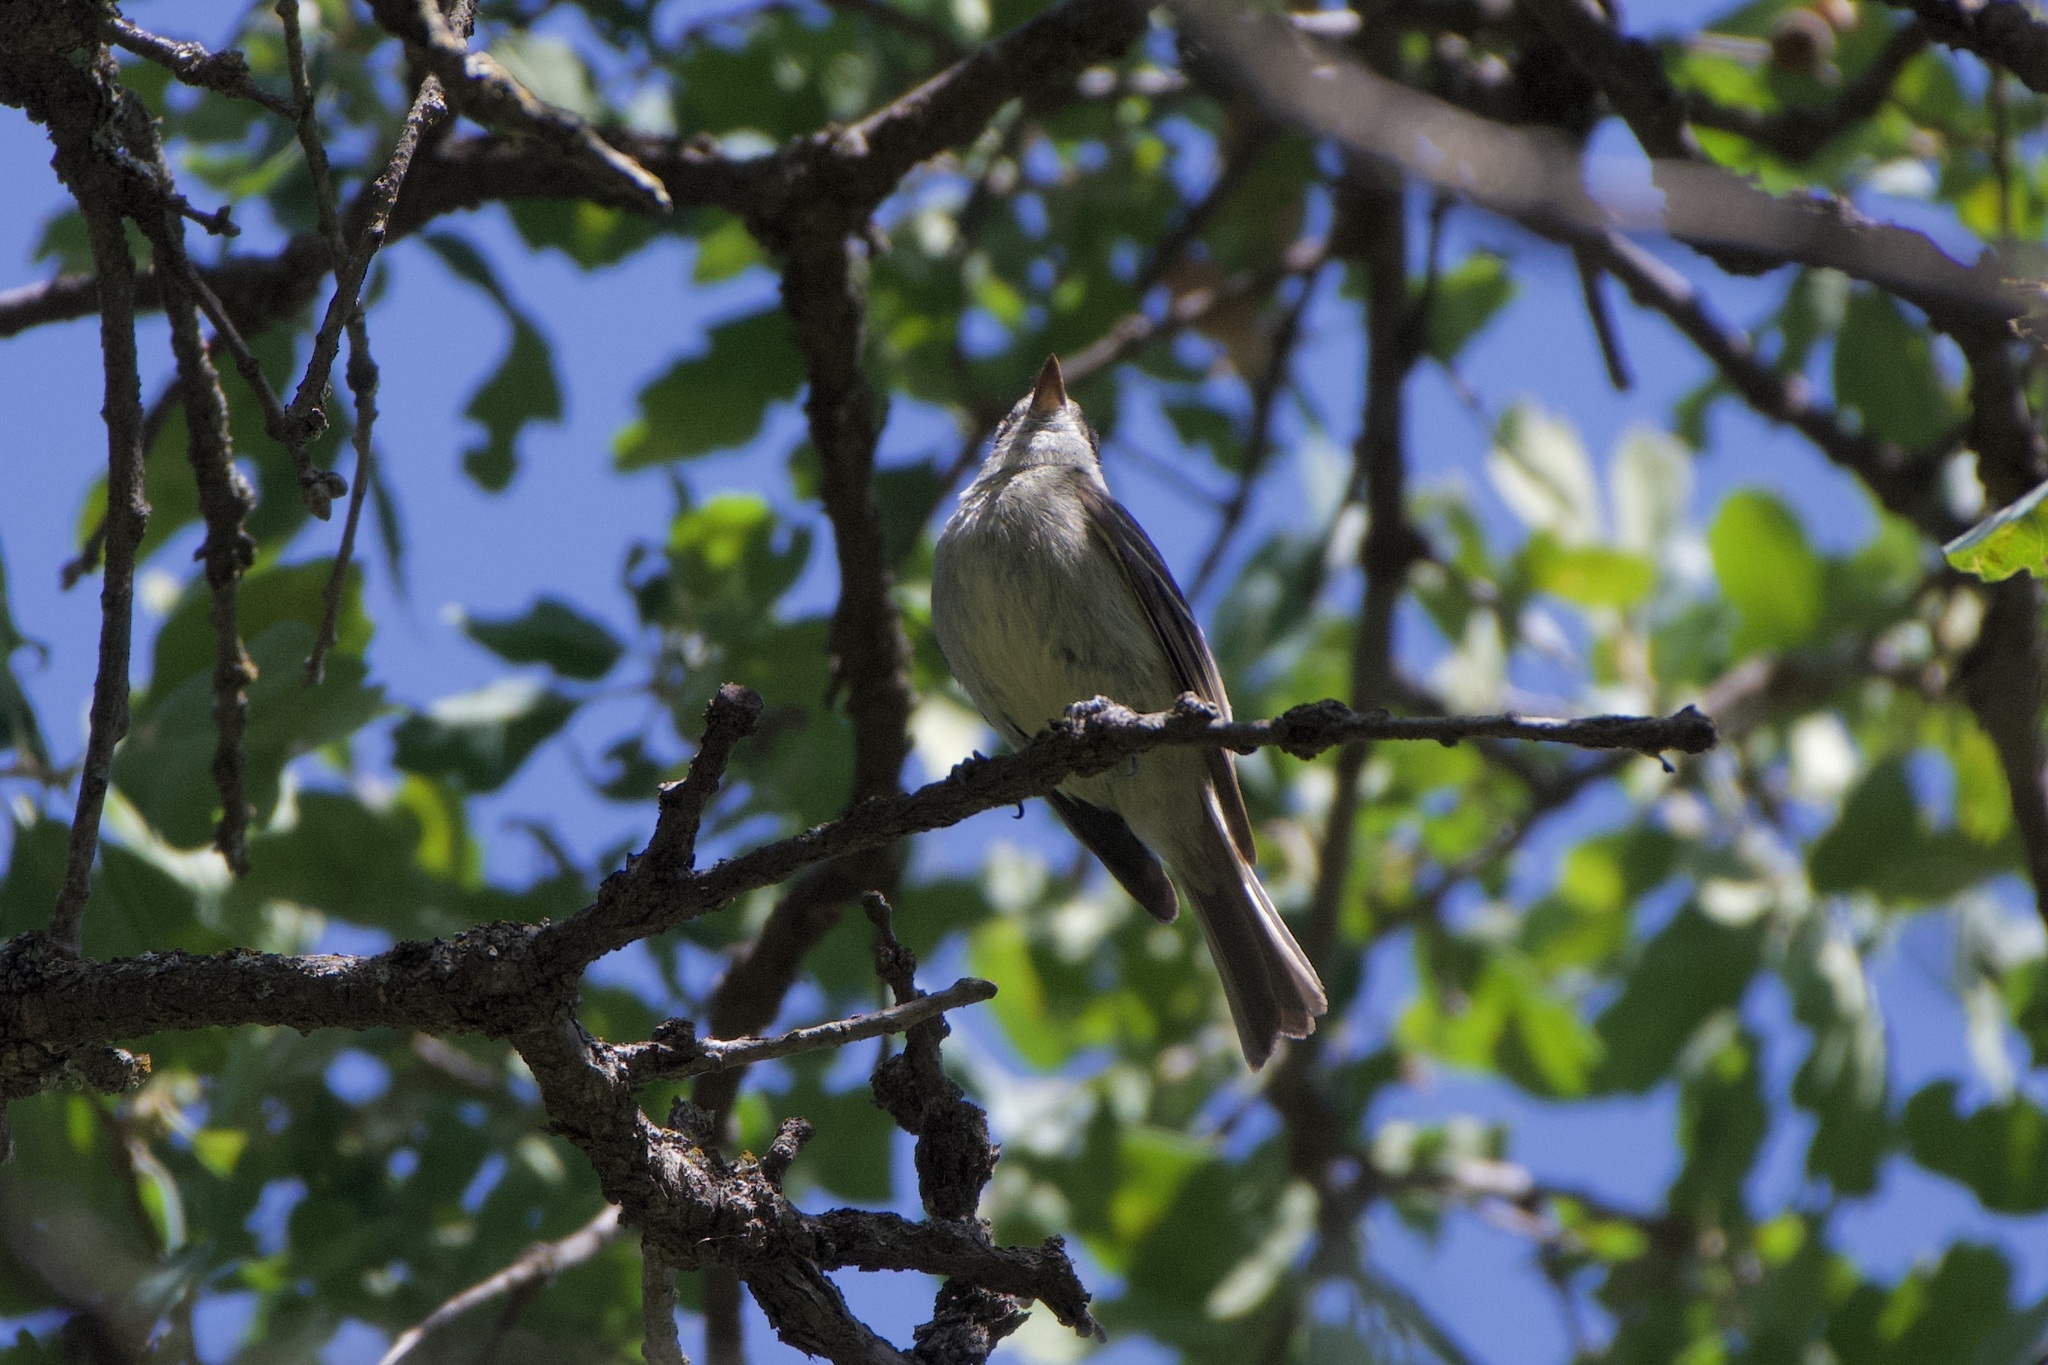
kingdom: Animalia
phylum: Chordata
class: Aves
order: Passeriformes
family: Tyrannidae
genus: Empidonax
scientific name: Empidonax hammondii
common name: Hammond's flycatcher
